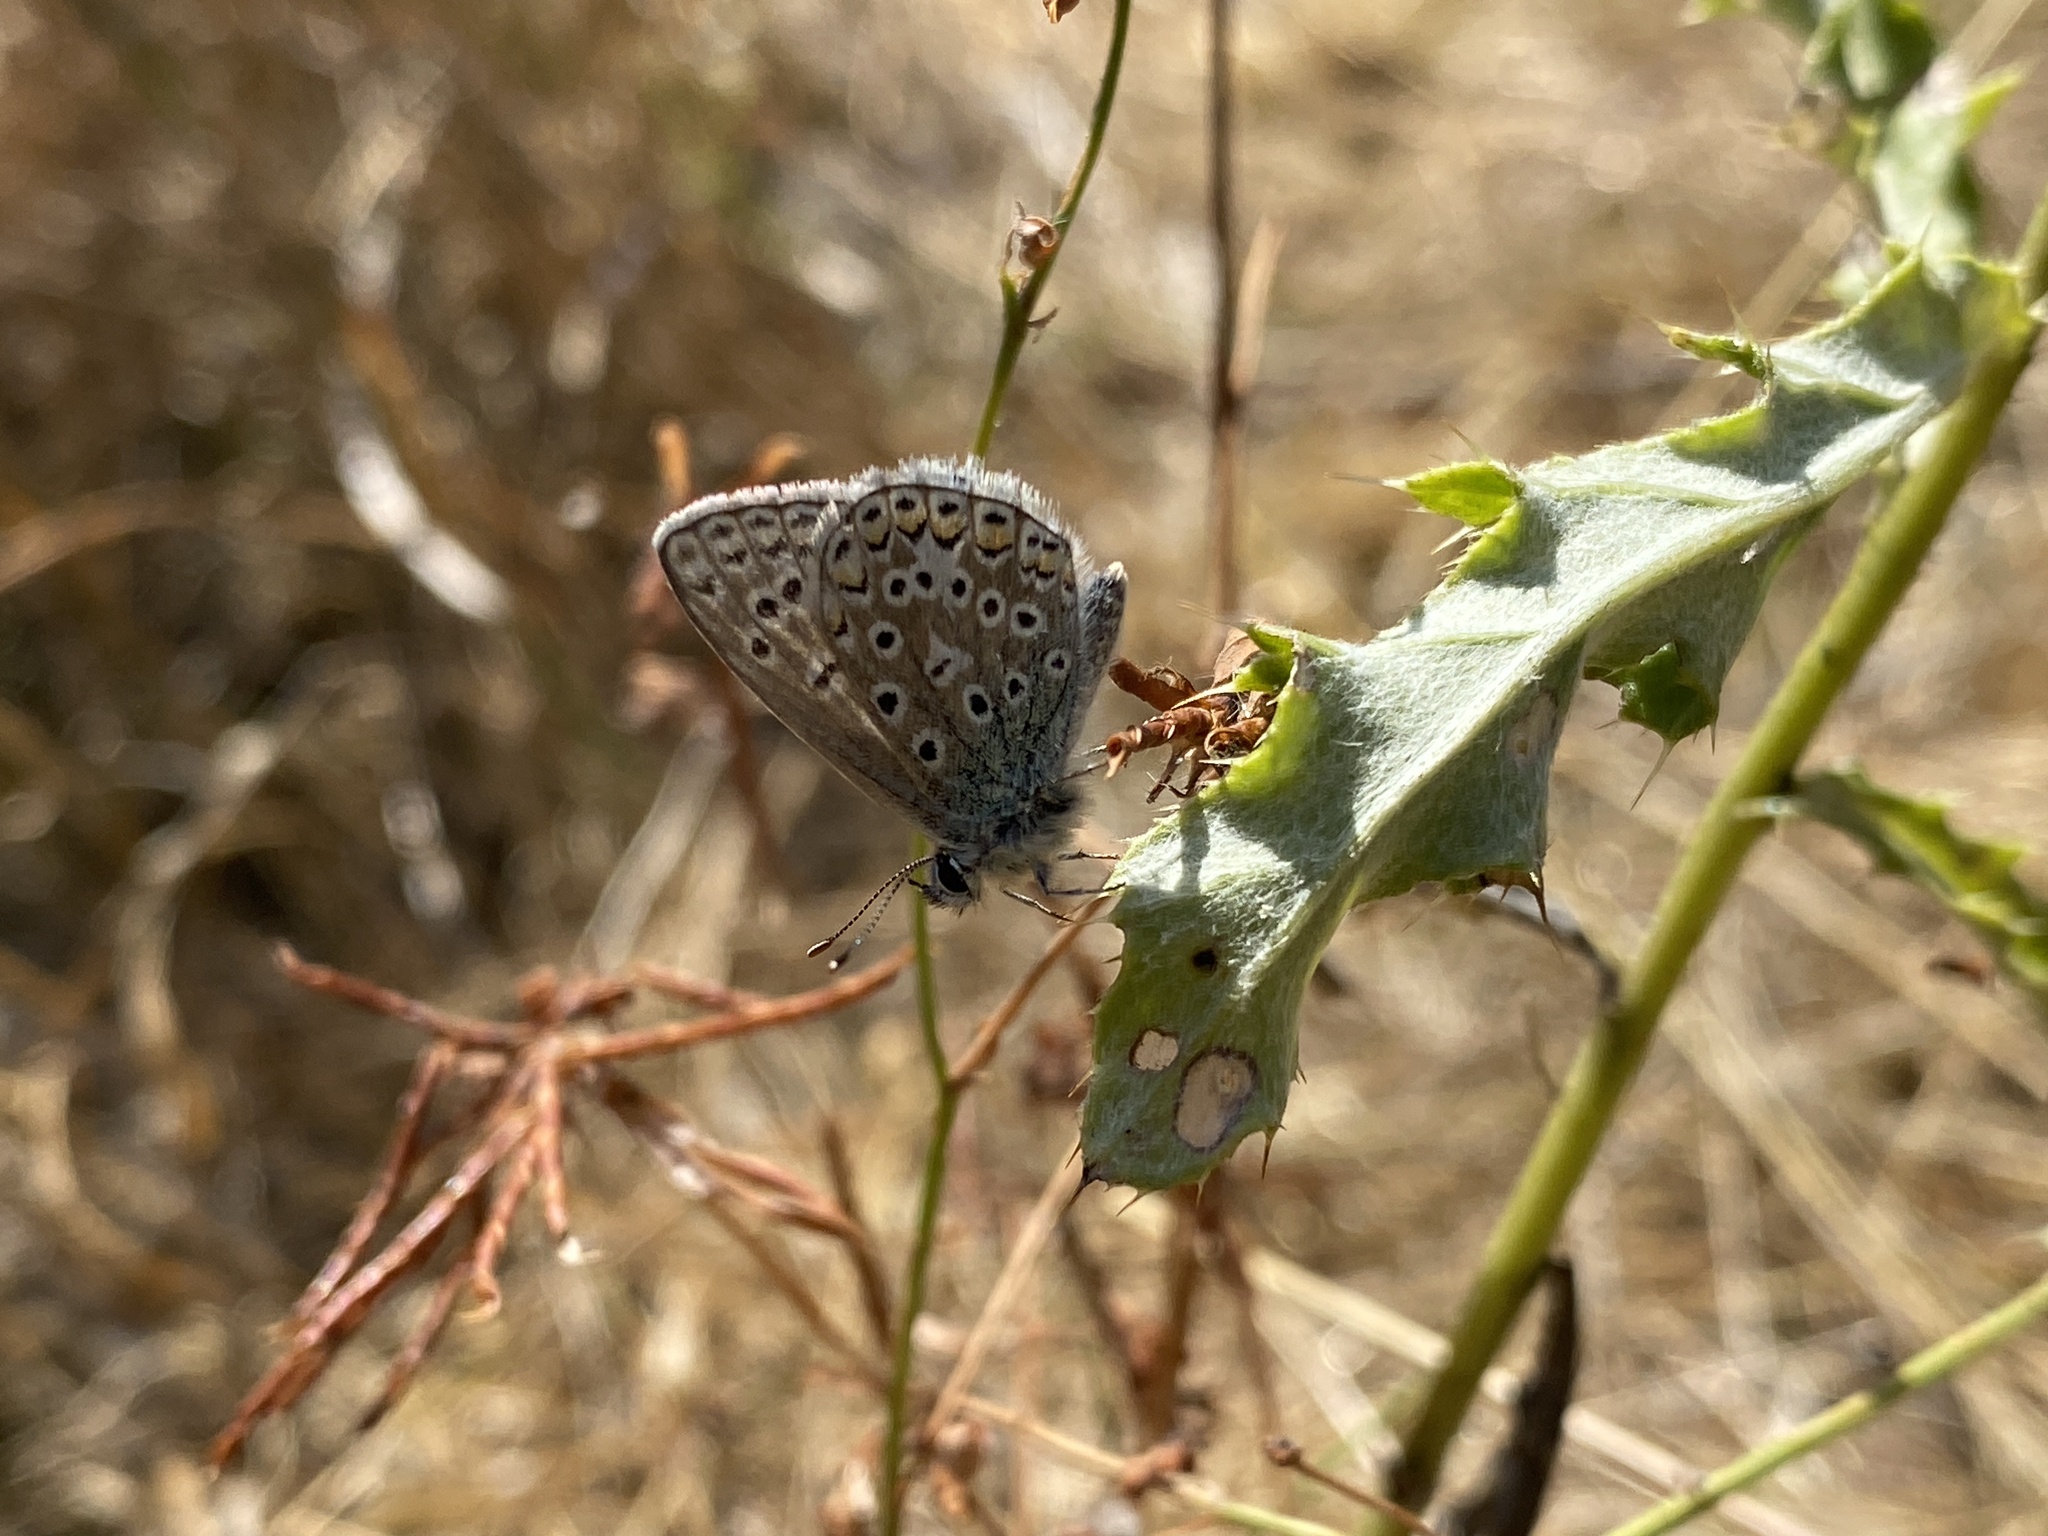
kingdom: Animalia
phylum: Arthropoda
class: Insecta
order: Lepidoptera
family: Lycaenidae
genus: Polyommatus
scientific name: Polyommatus icarus
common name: Common blue
